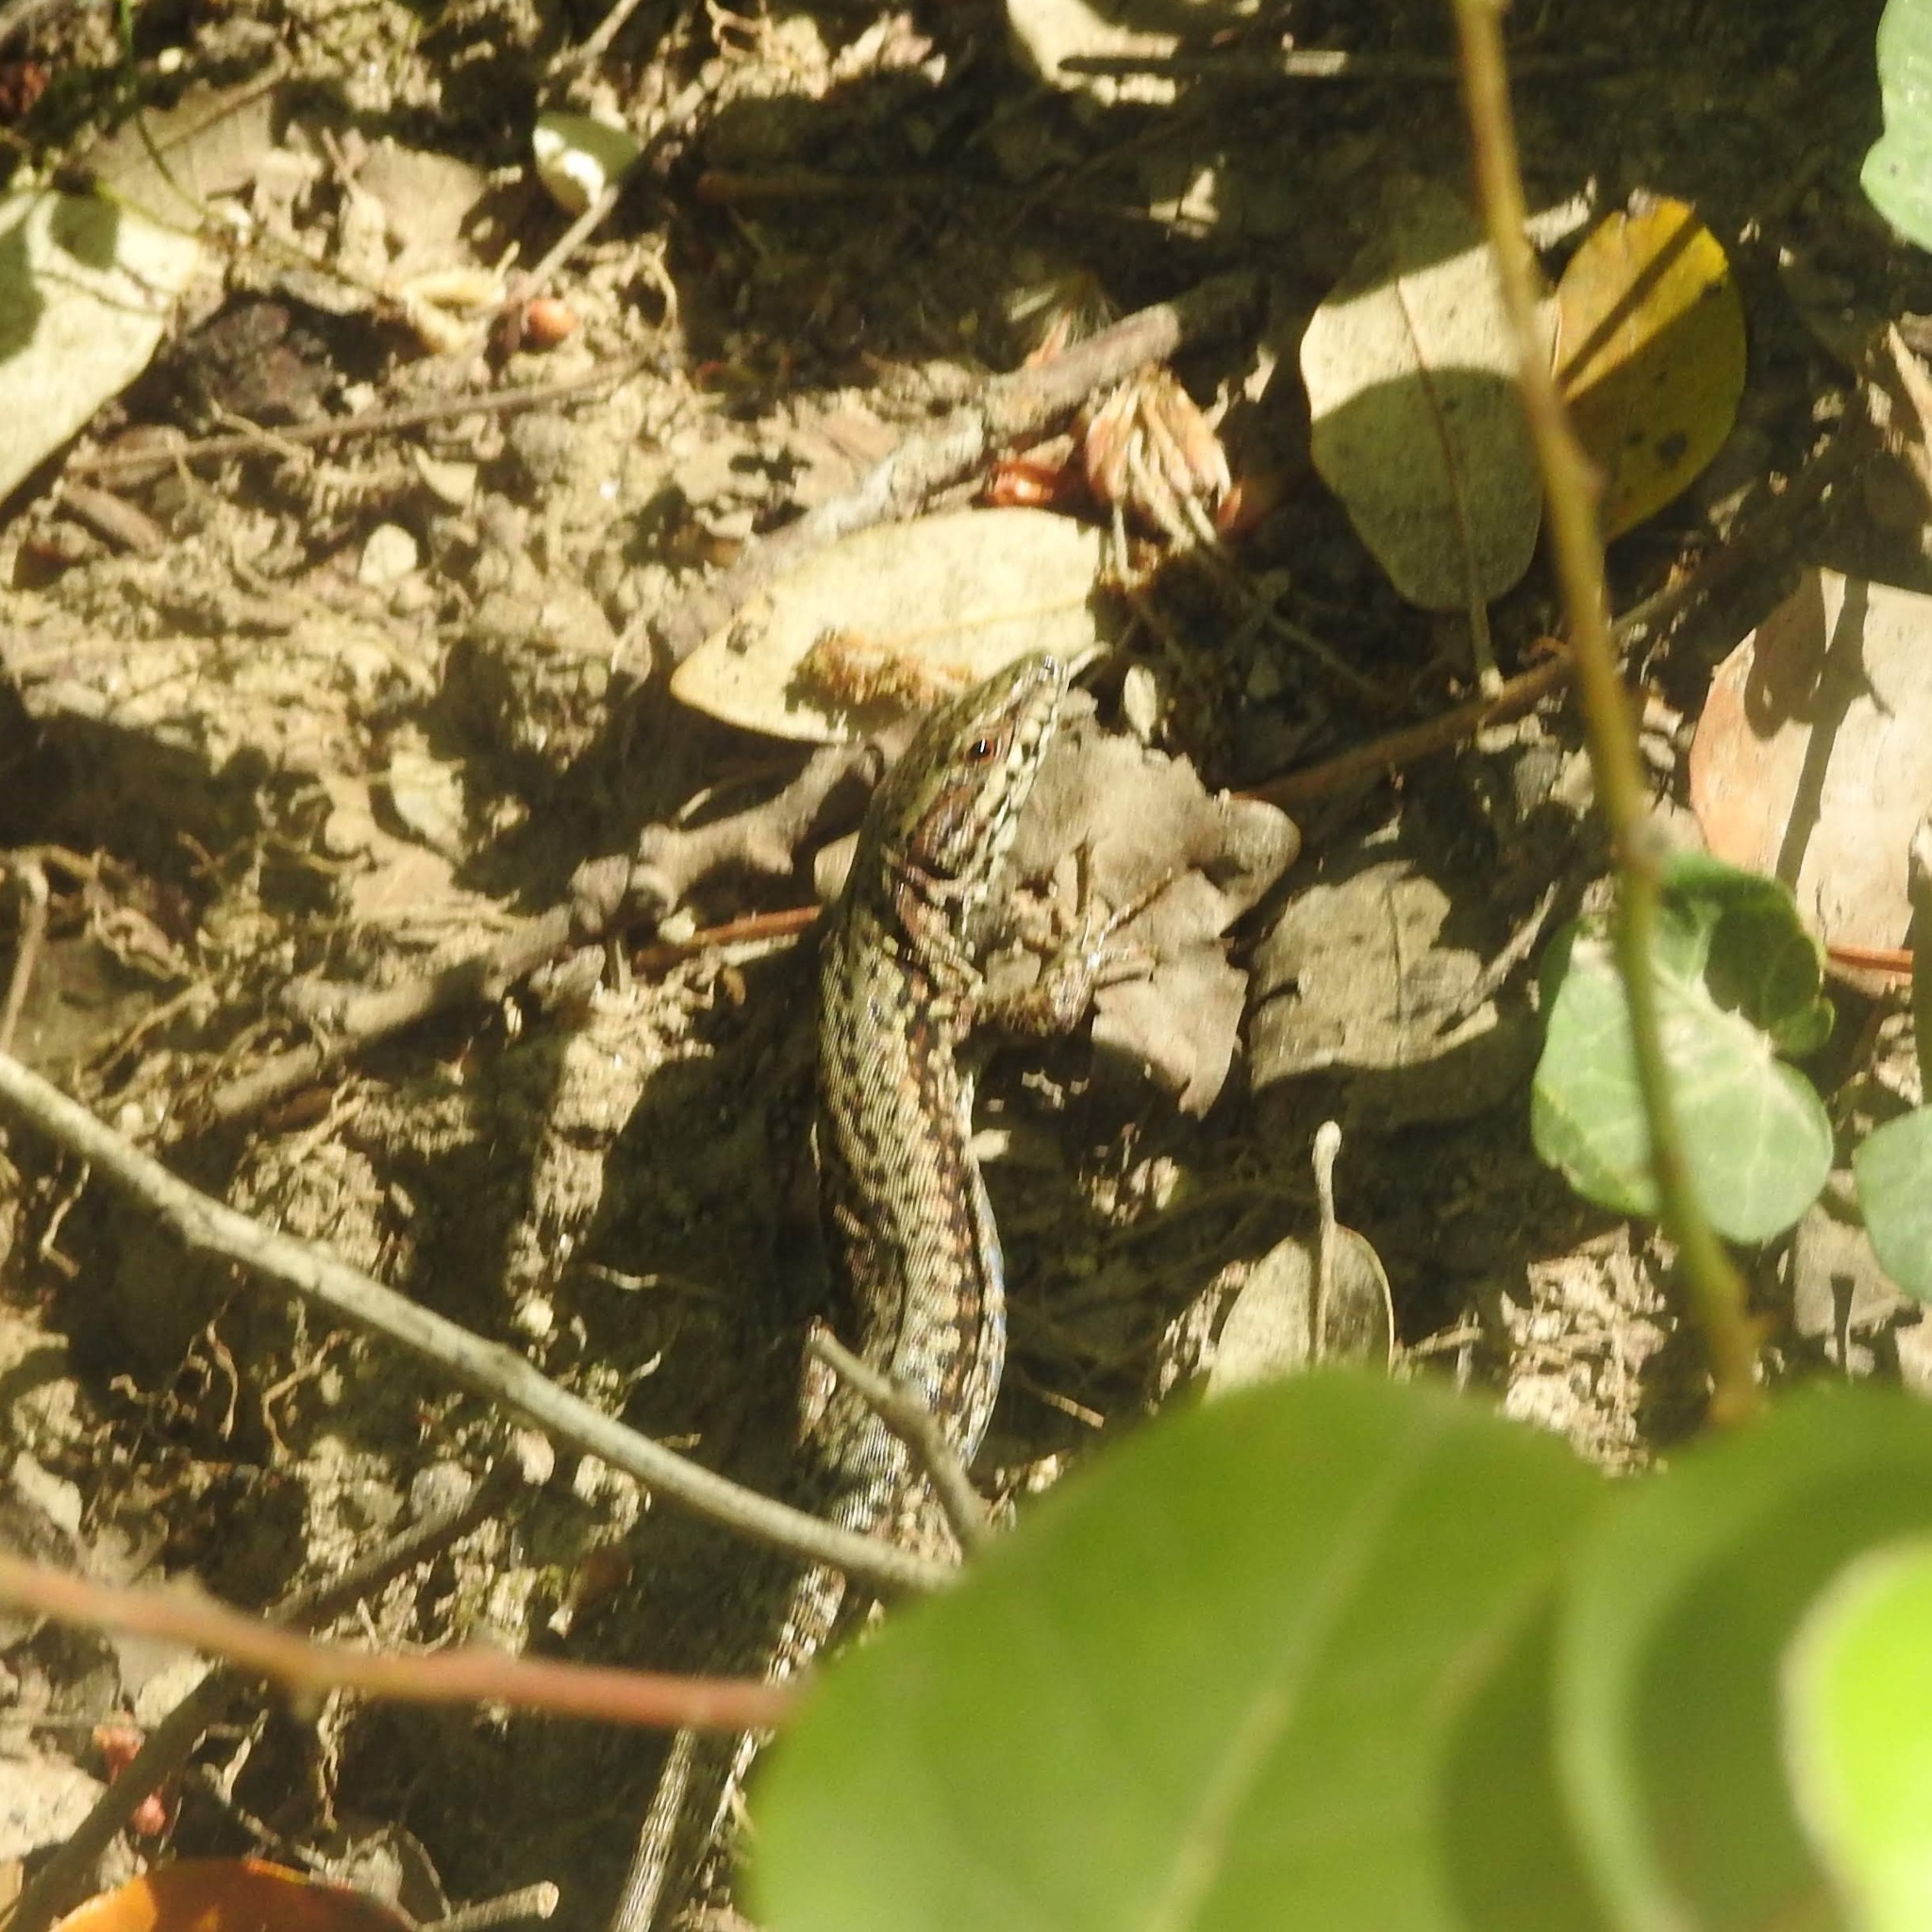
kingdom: Animalia
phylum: Chordata
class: Squamata
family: Lacertidae
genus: Podarcis
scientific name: Podarcis muralis
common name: Common wall lizard
